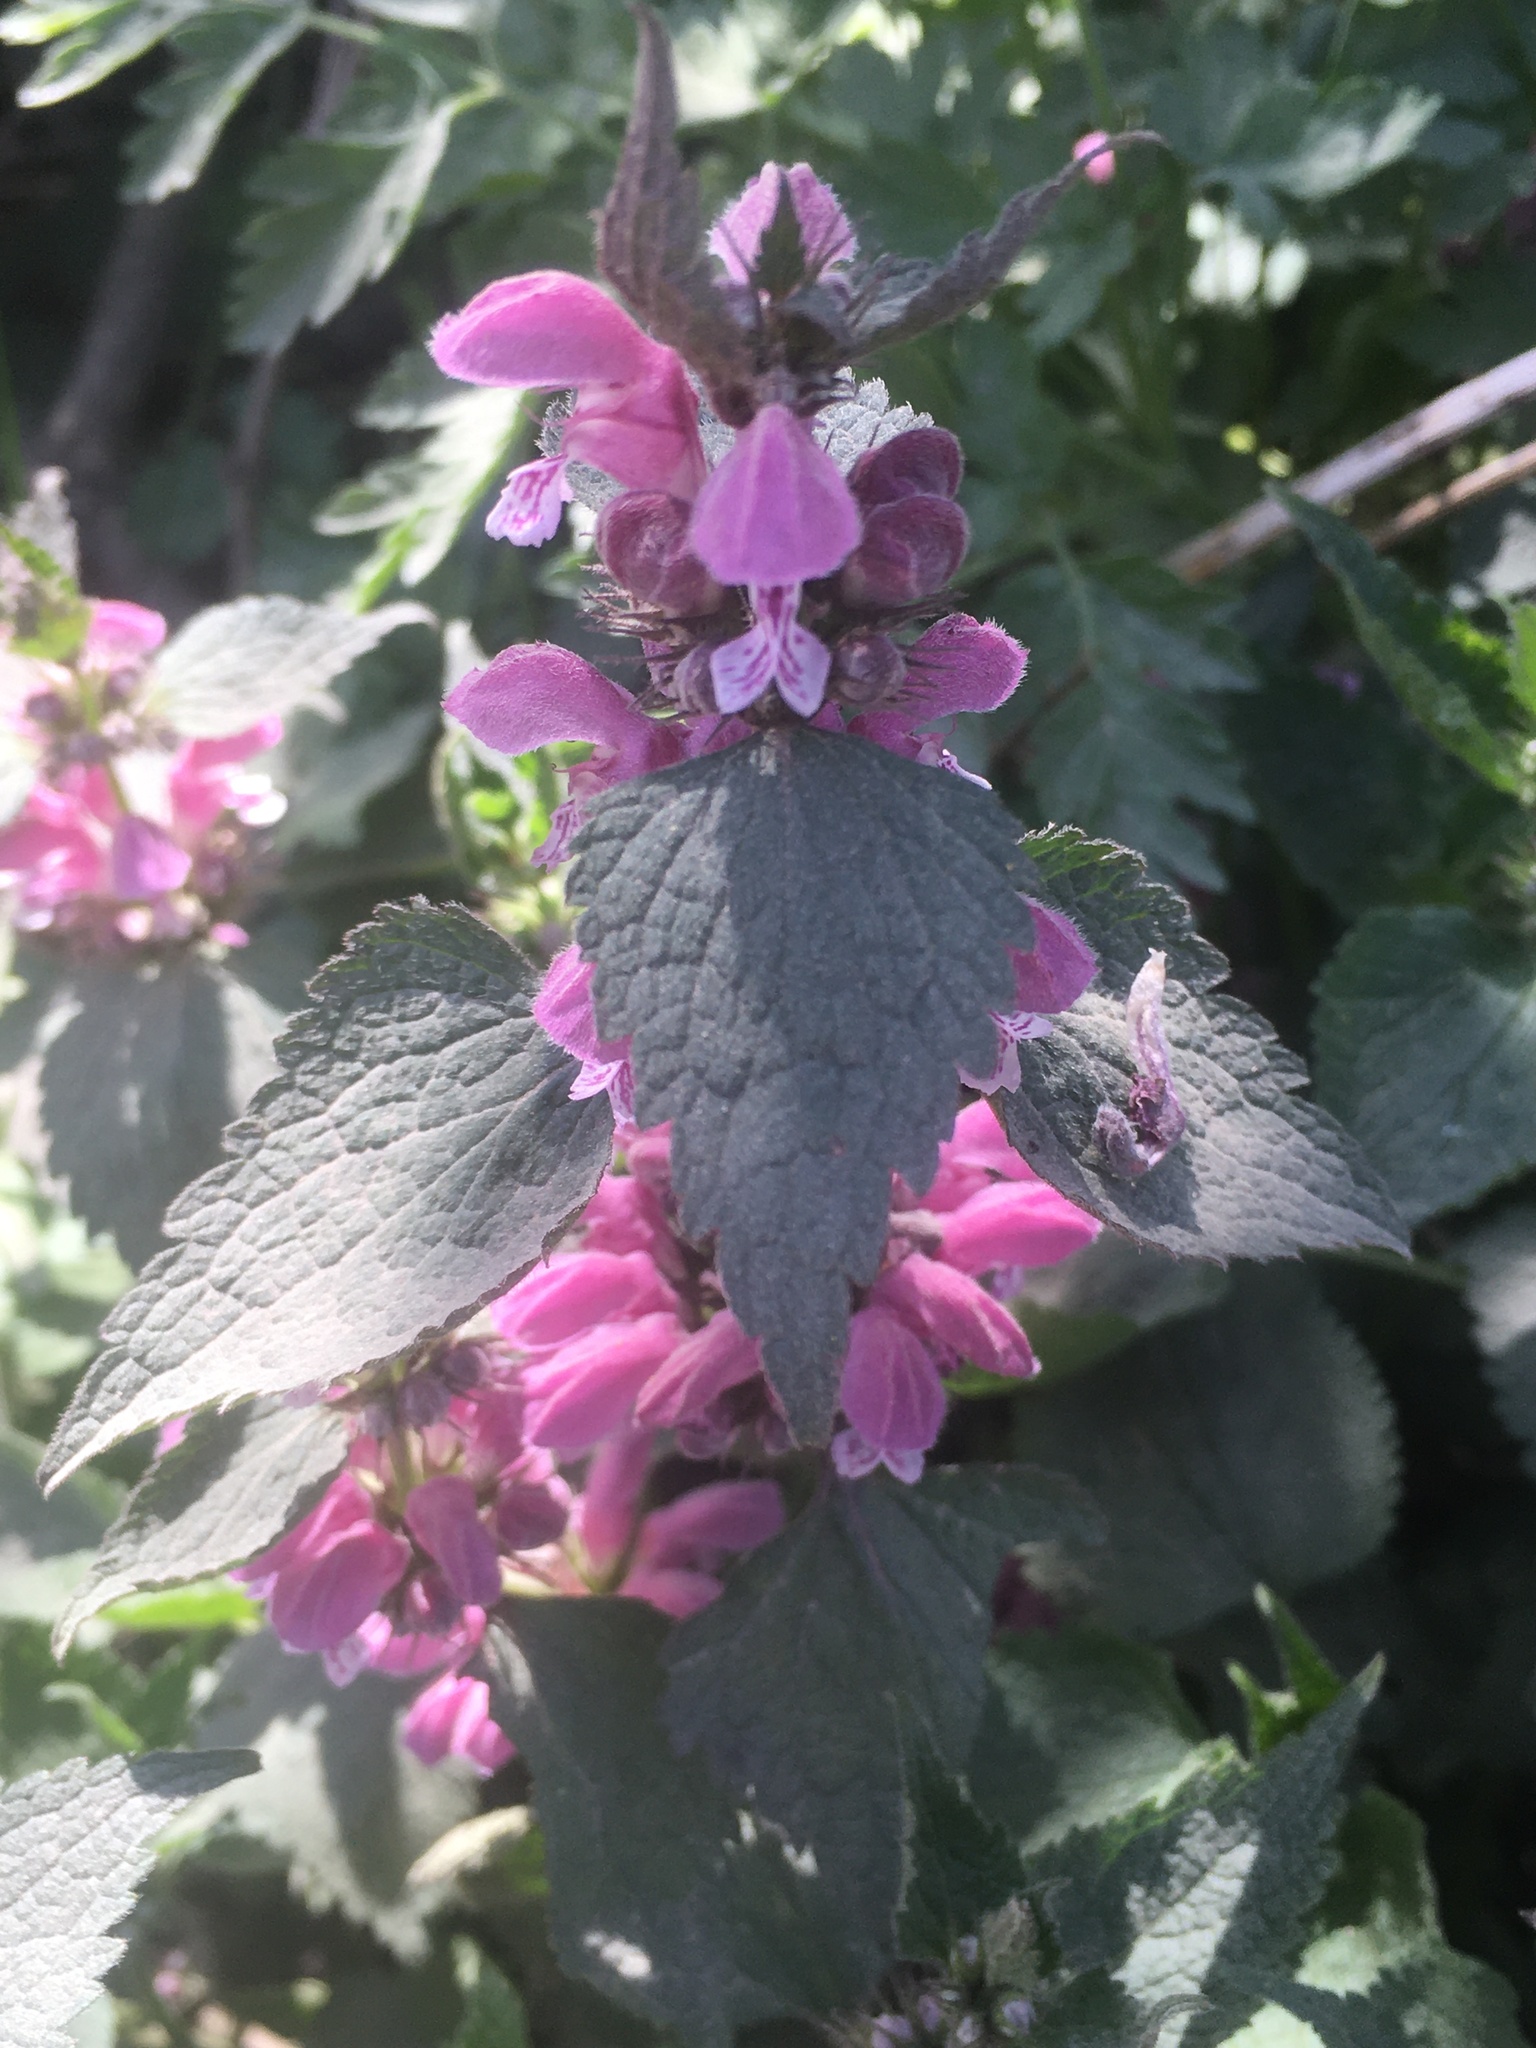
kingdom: Plantae
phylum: Tracheophyta
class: Magnoliopsida
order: Lamiales
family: Lamiaceae
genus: Lamium
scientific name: Lamium maculatum
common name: Spotted dead-nettle
